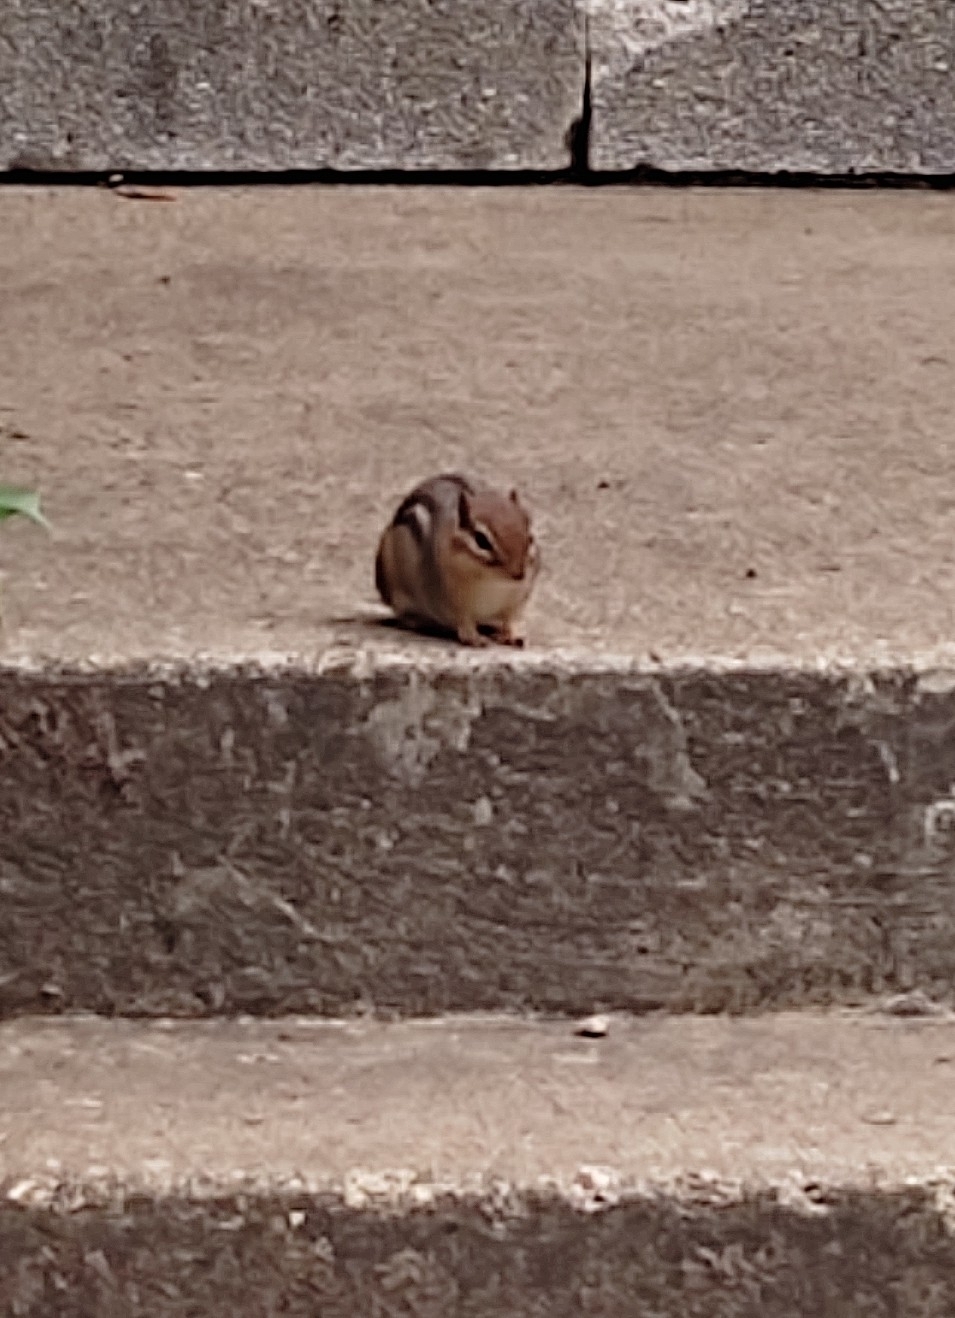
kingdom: Animalia
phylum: Chordata
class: Mammalia
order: Rodentia
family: Sciuridae
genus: Tamias
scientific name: Tamias striatus
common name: Eastern chipmunk
